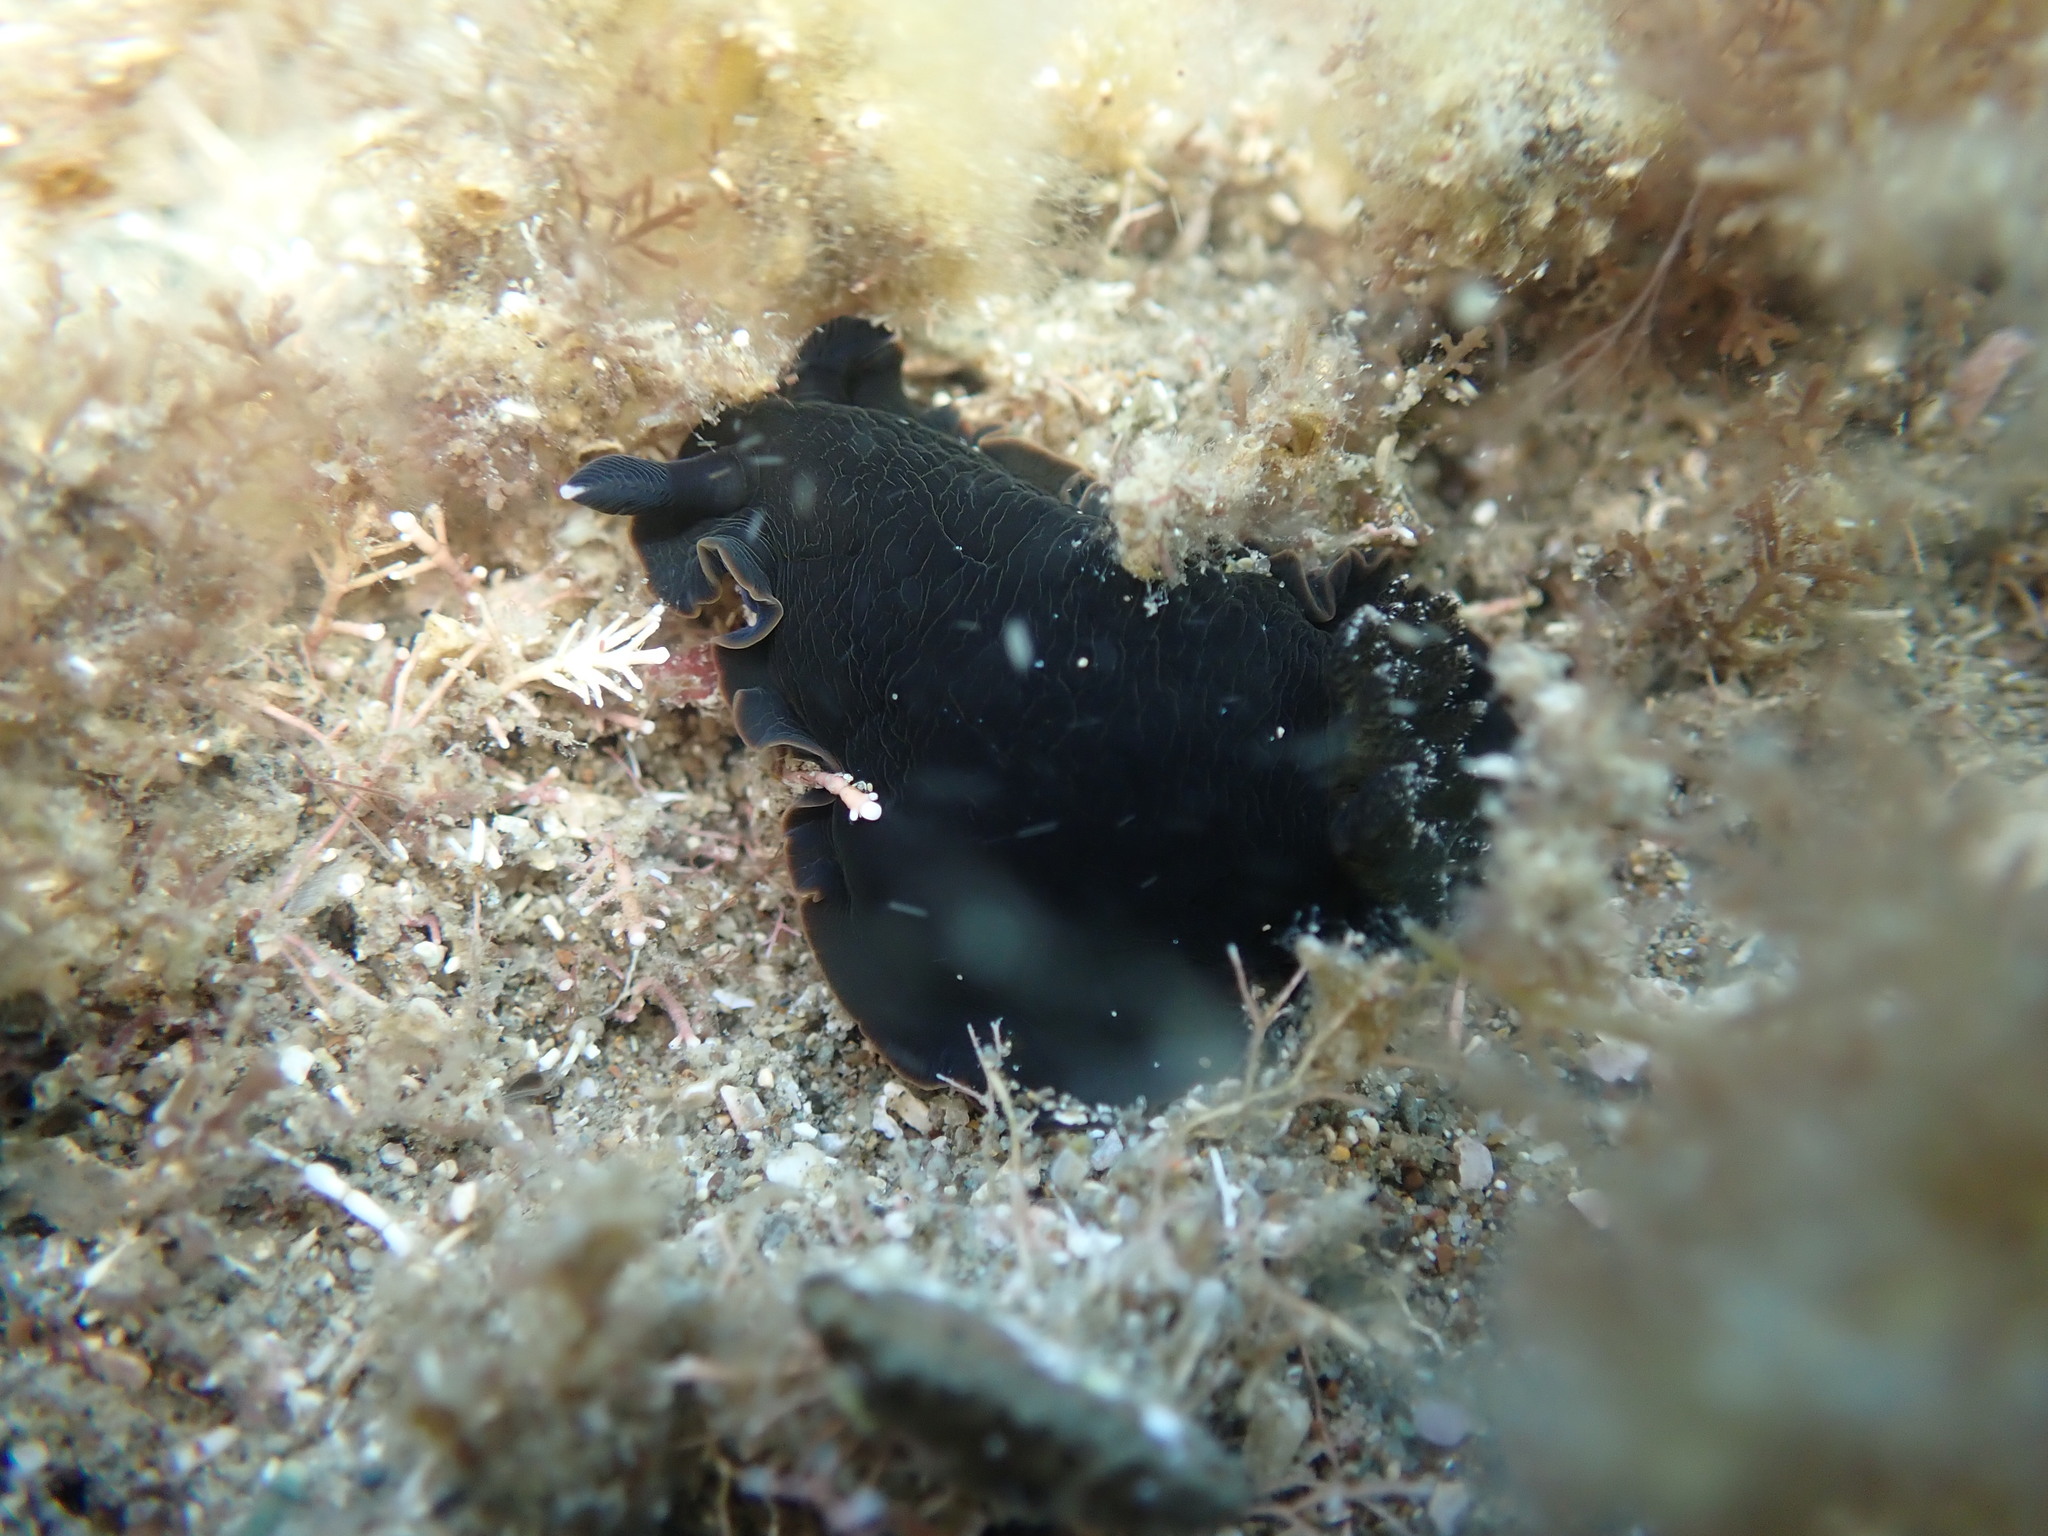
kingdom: Animalia
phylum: Mollusca
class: Gastropoda
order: Nudibranchia
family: Dendrodorididae
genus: Dendrodoris
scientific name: Dendrodoris nigra
